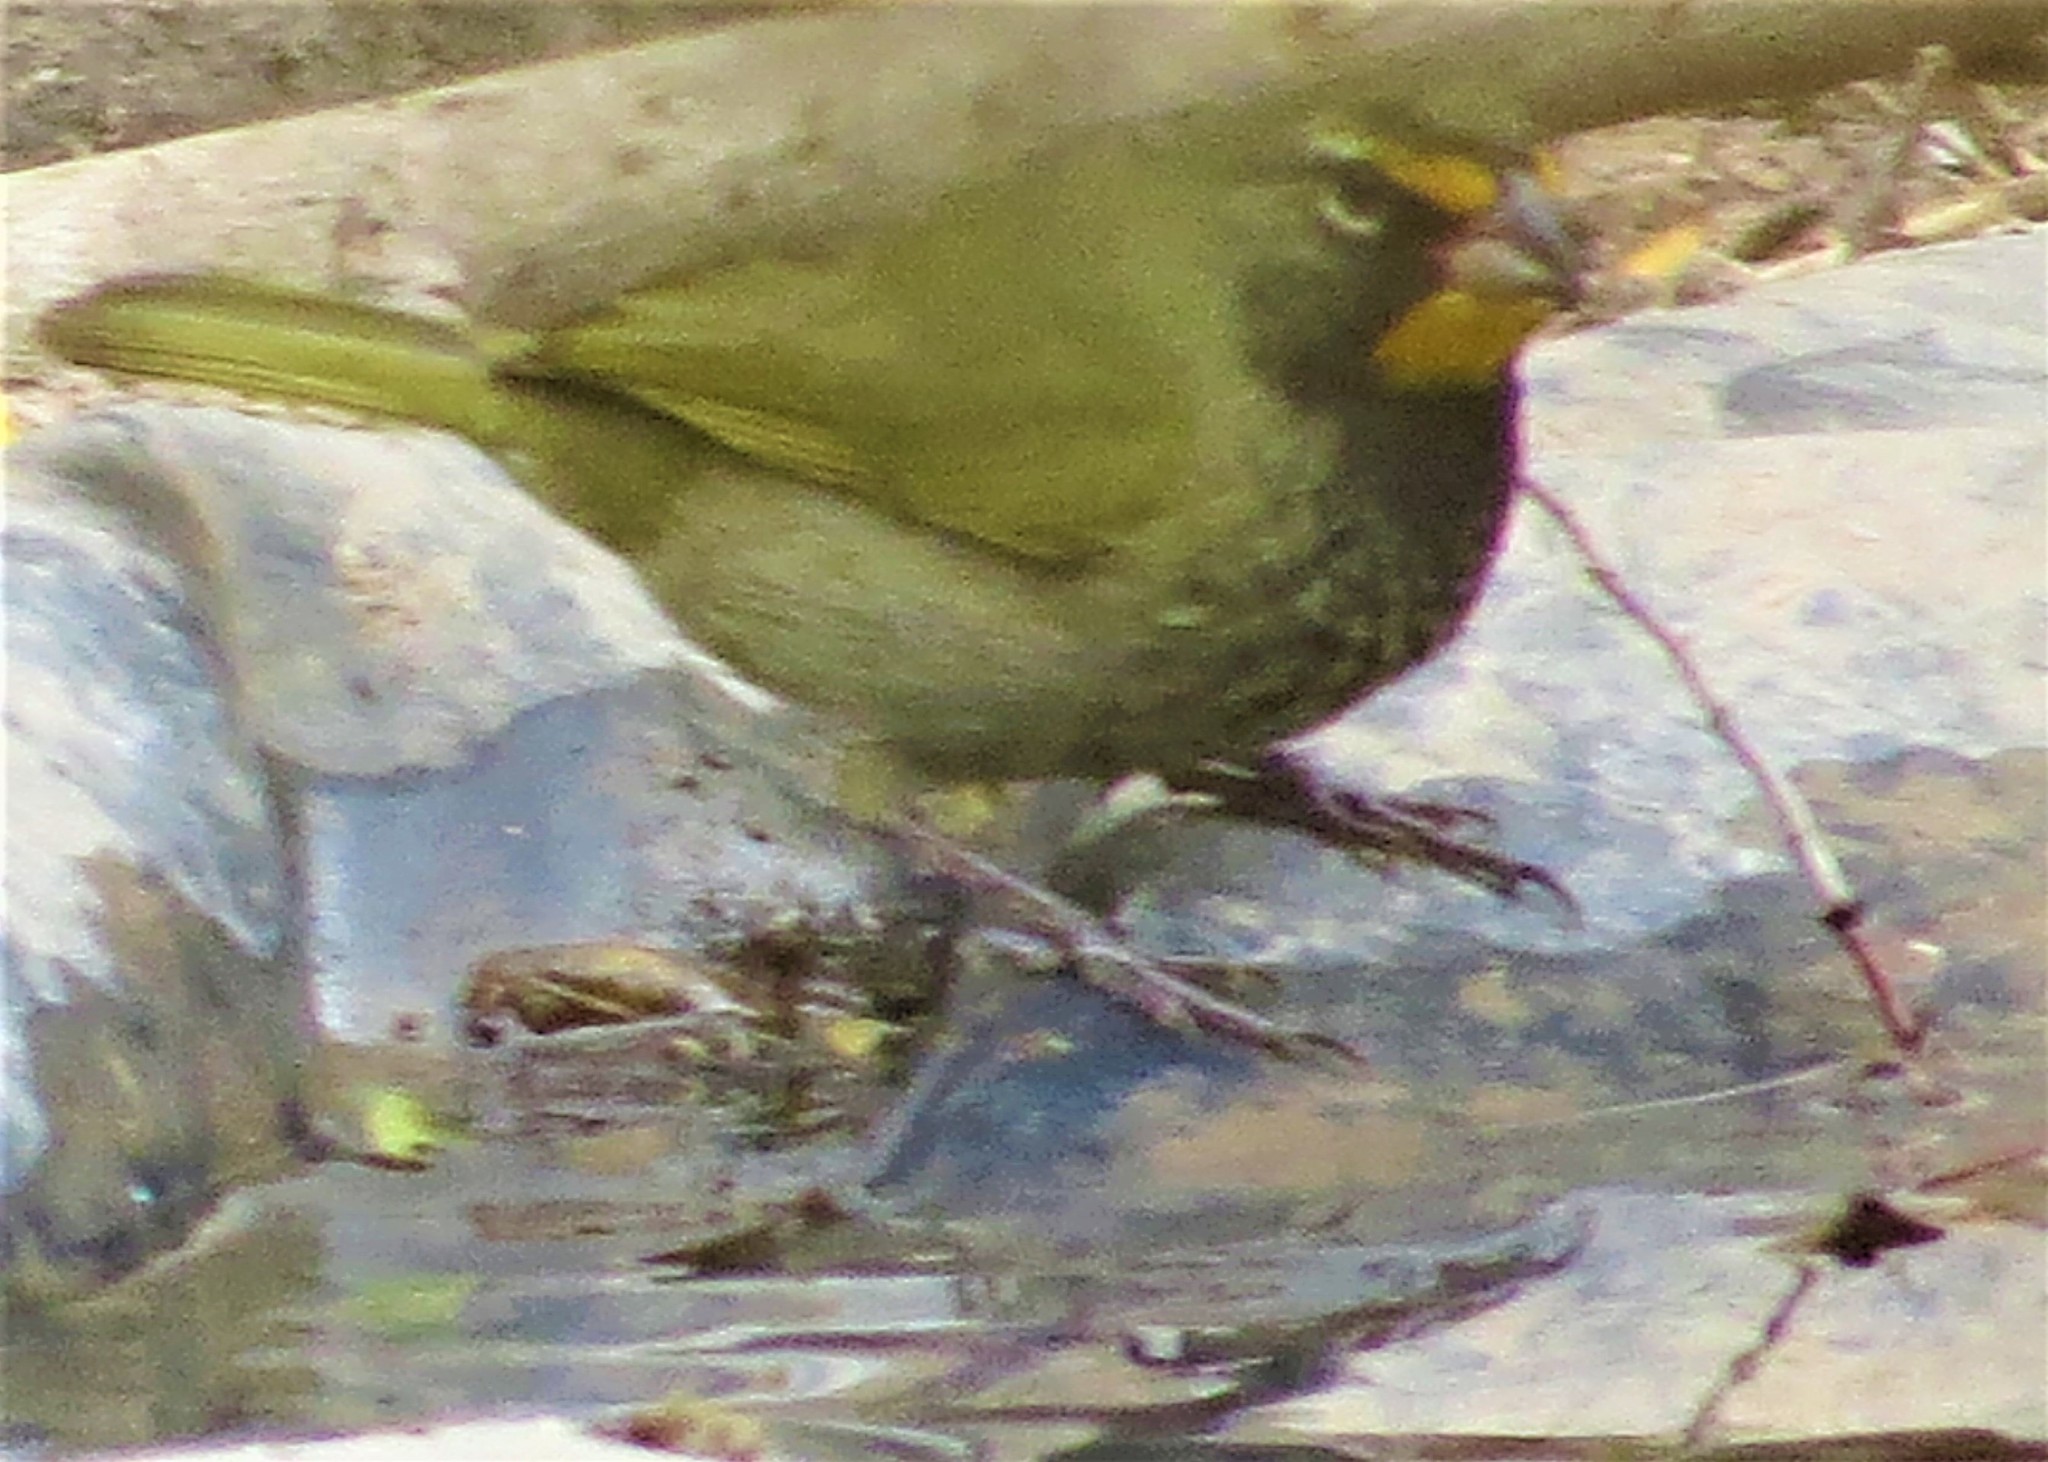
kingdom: Animalia
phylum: Chordata
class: Aves
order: Passeriformes
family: Thraupidae
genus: Tiaris
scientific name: Tiaris olivaceus
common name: Yellow-faced grassquit
